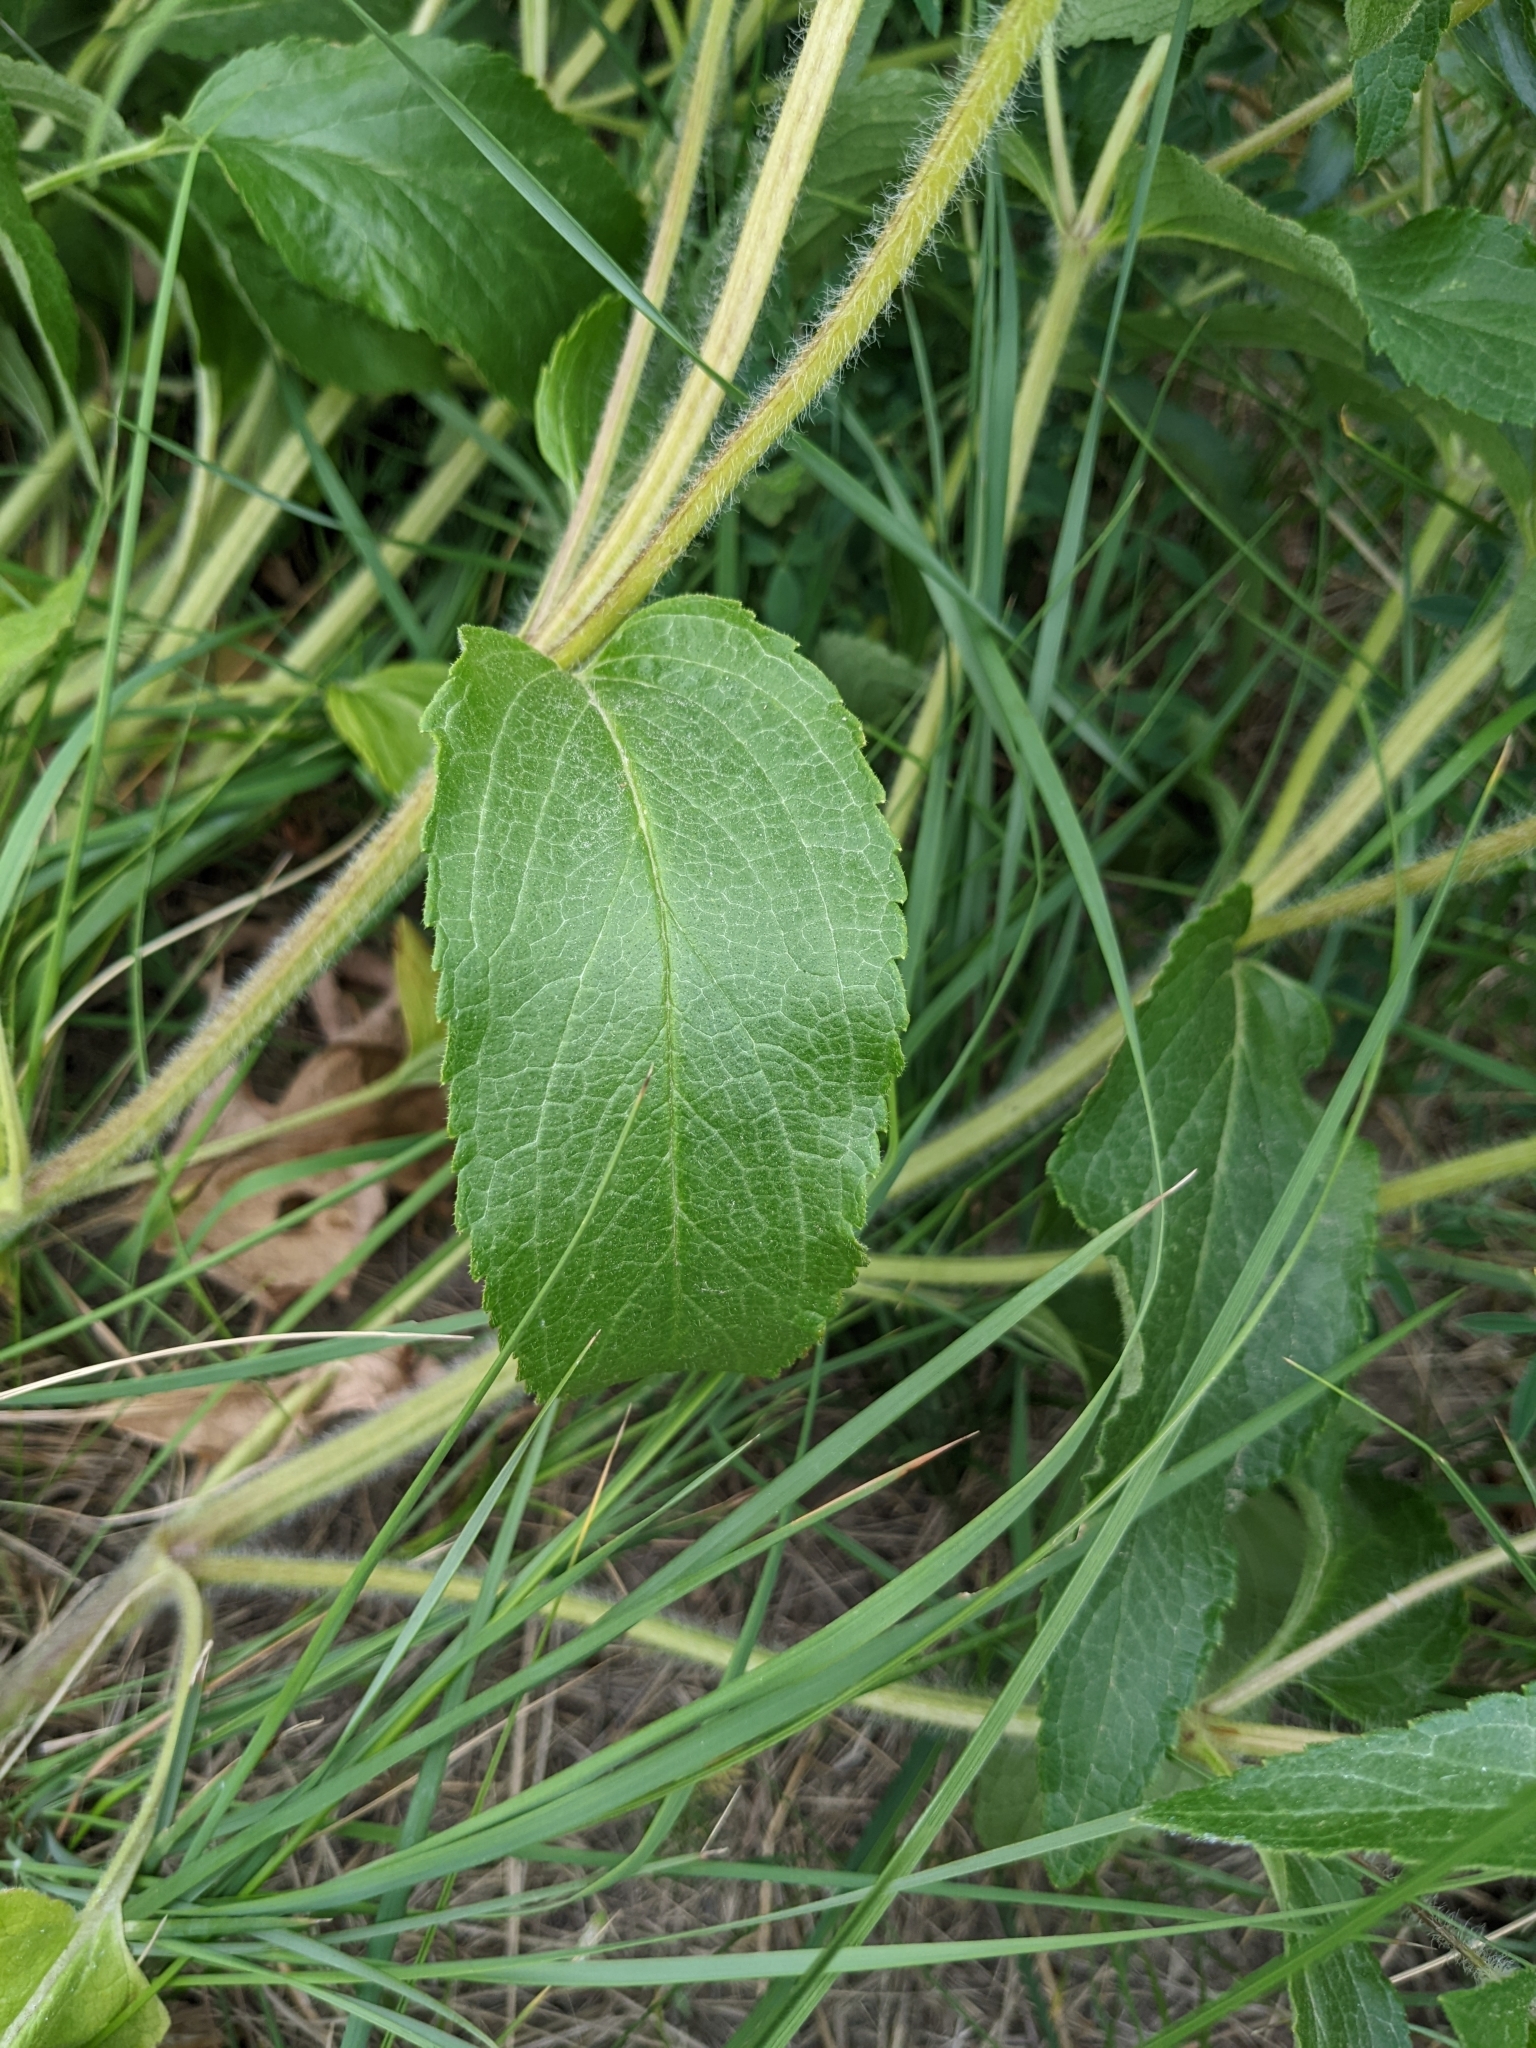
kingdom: Plantae
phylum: Tracheophyta
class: Magnoliopsida
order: Lamiales
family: Lamiaceae
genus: Phlomis
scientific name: Phlomis herba-venti
